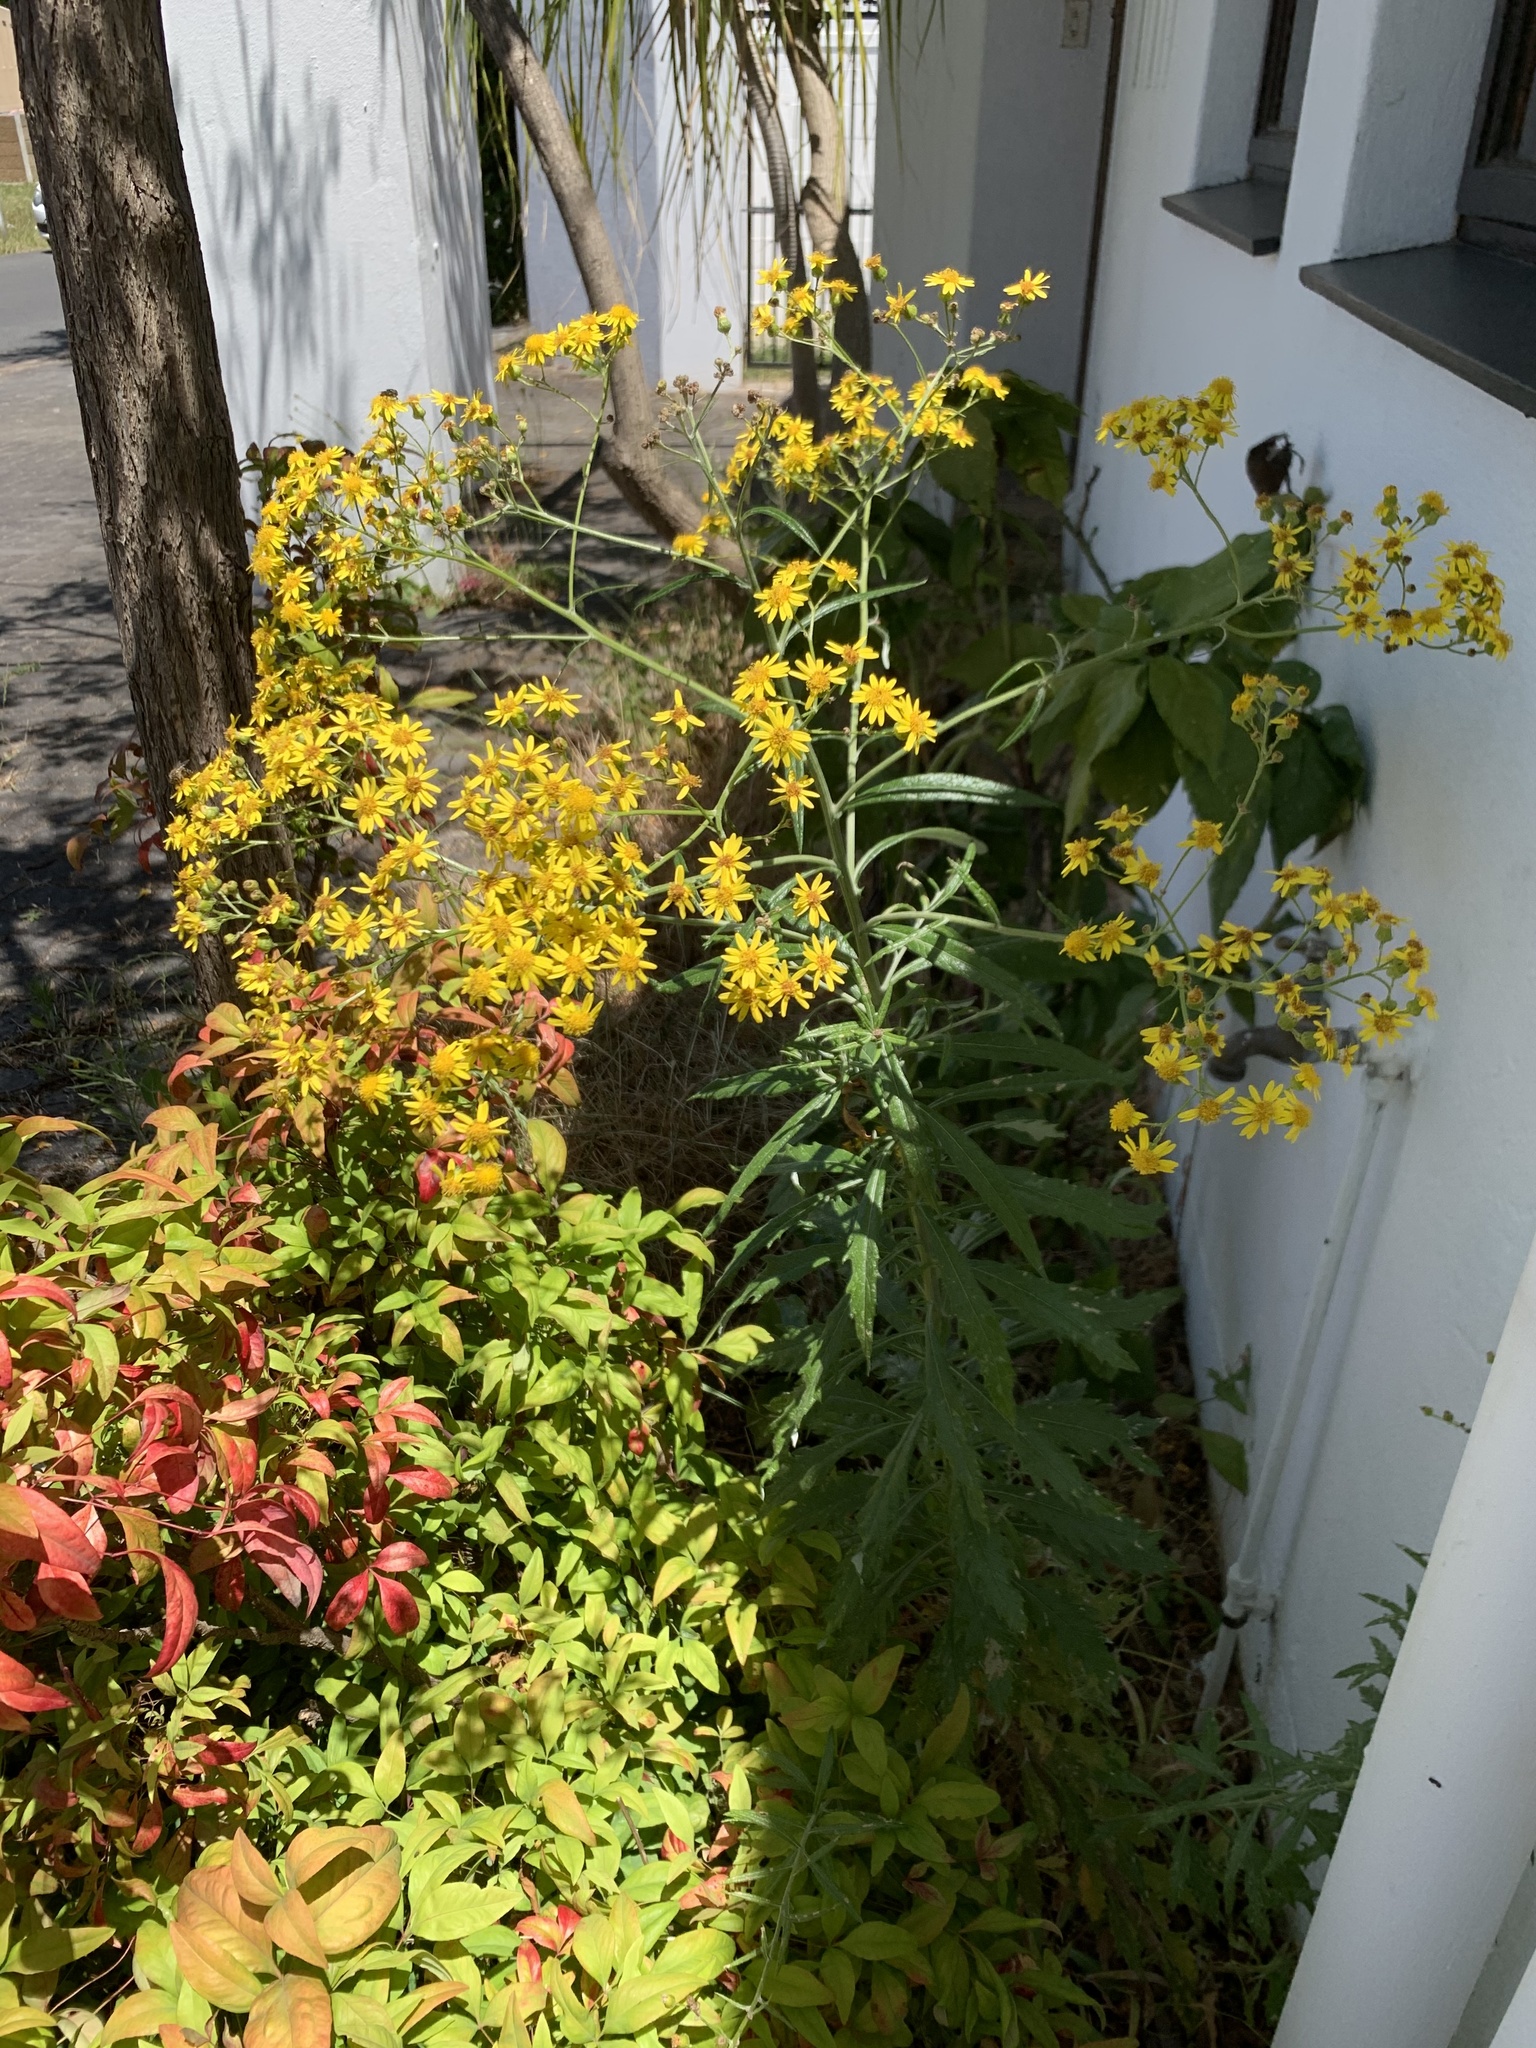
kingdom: Plantae
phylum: Tracheophyta
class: Magnoliopsida
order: Asterales
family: Asteraceae
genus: Senecio
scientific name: Senecio pterophorus
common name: Shoddy ragwort
